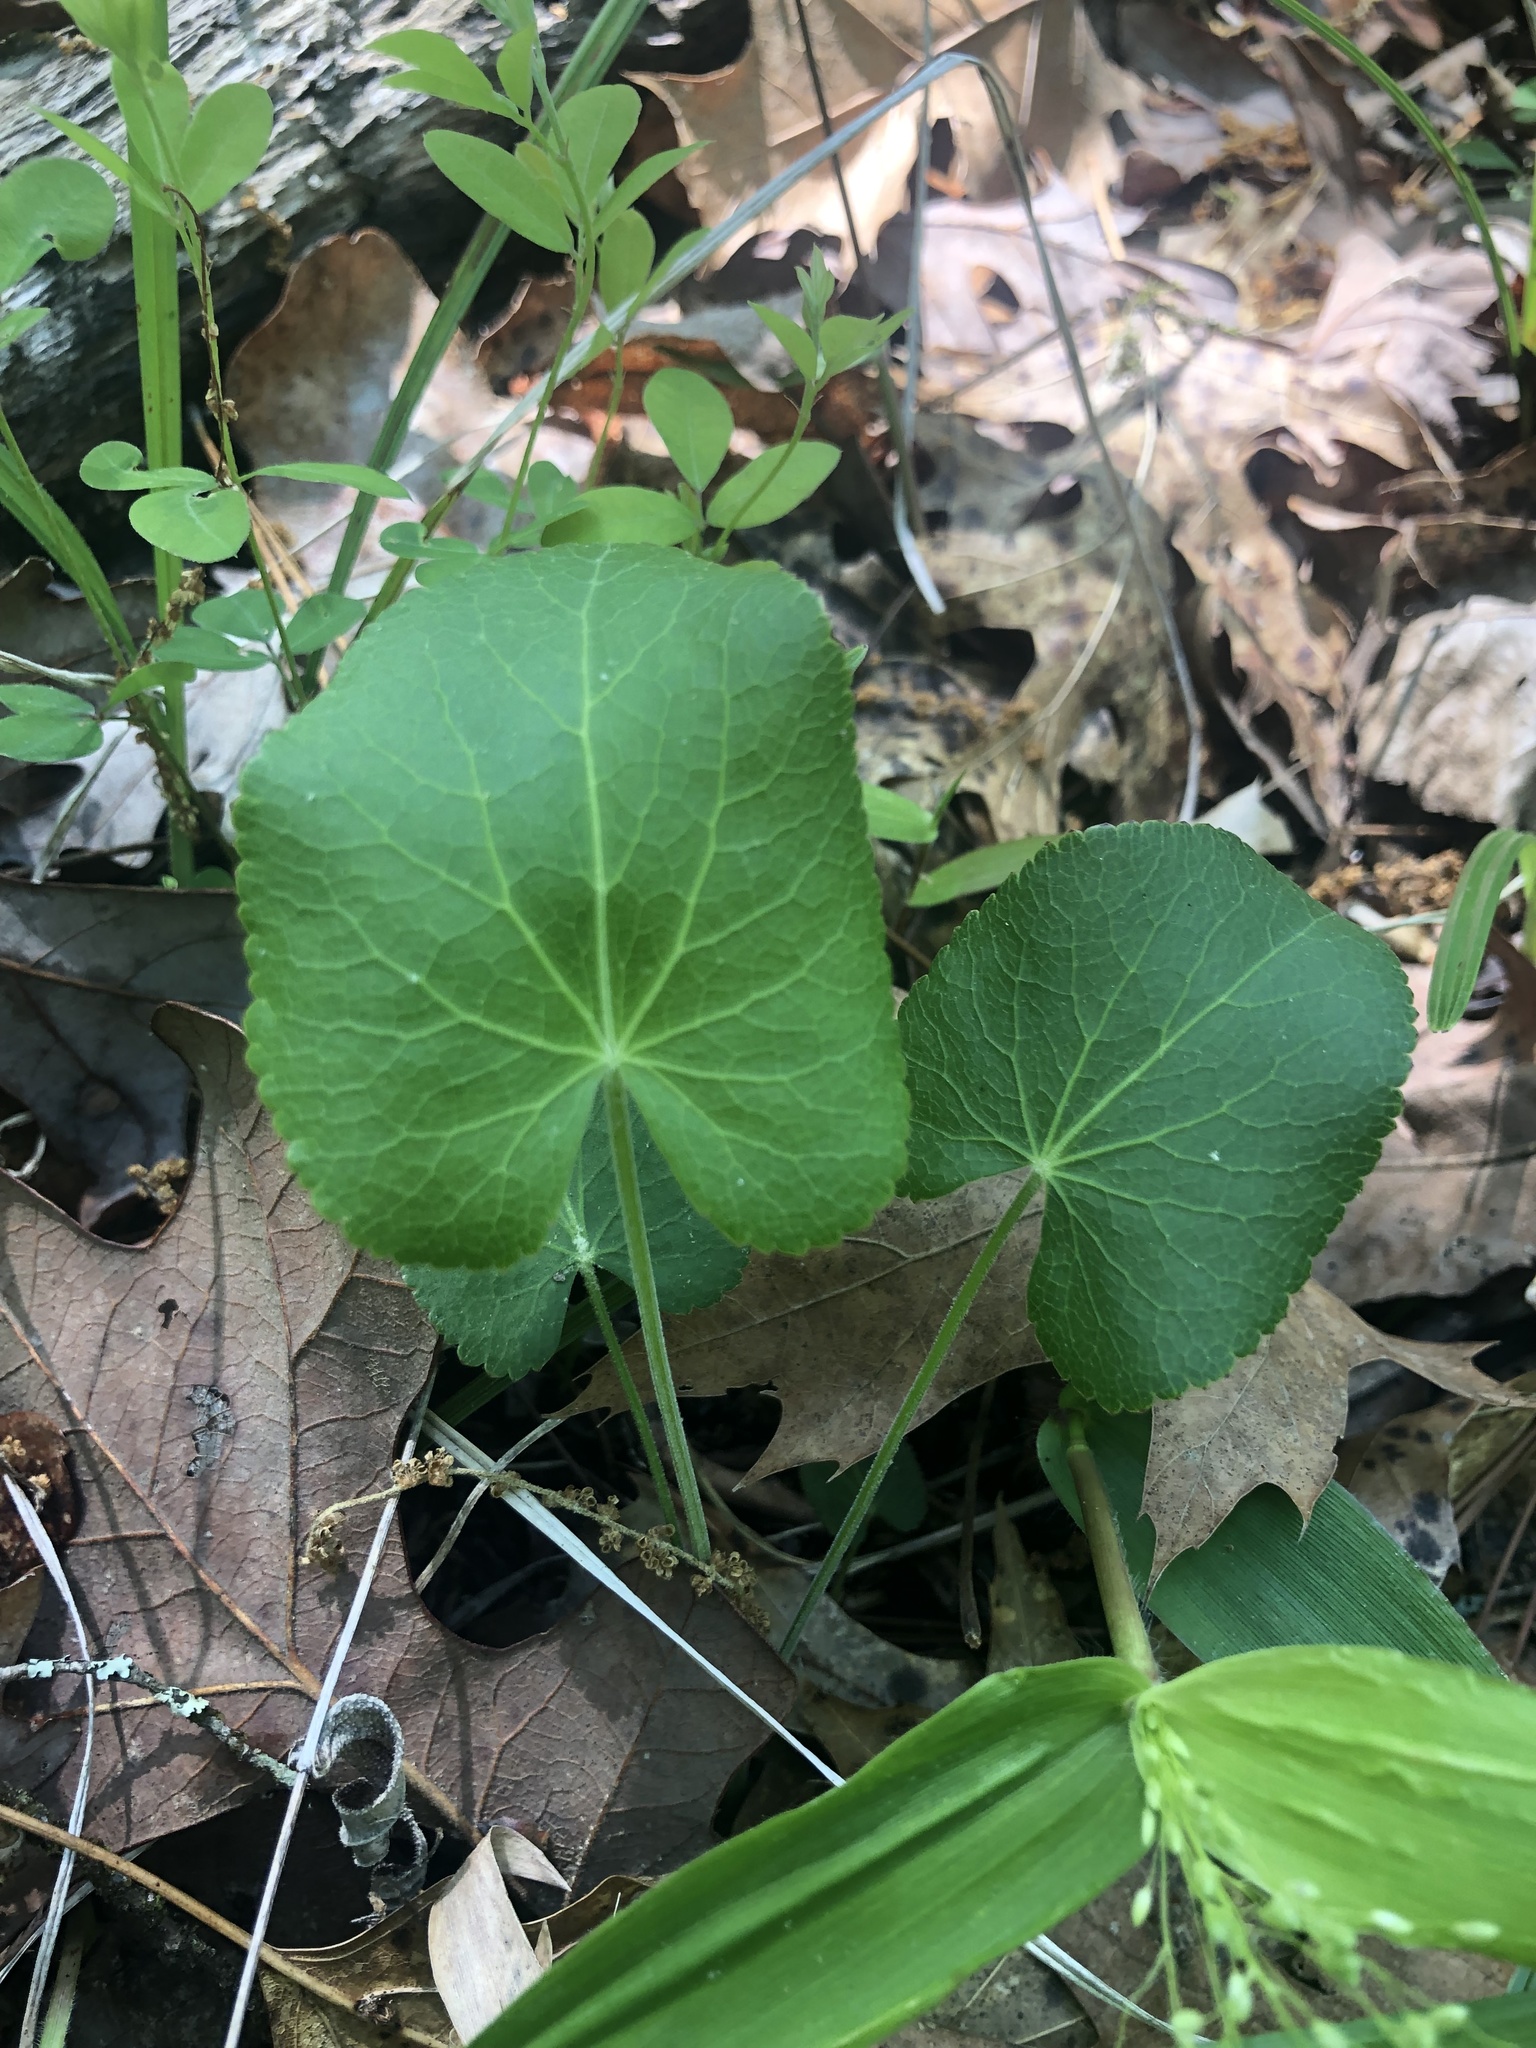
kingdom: Plantae
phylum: Tracheophyta
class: Magnoliopsida
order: Apiales
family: Apiaceae
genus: Zizia
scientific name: Zizia aptera
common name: Heart-leaved alexanders
